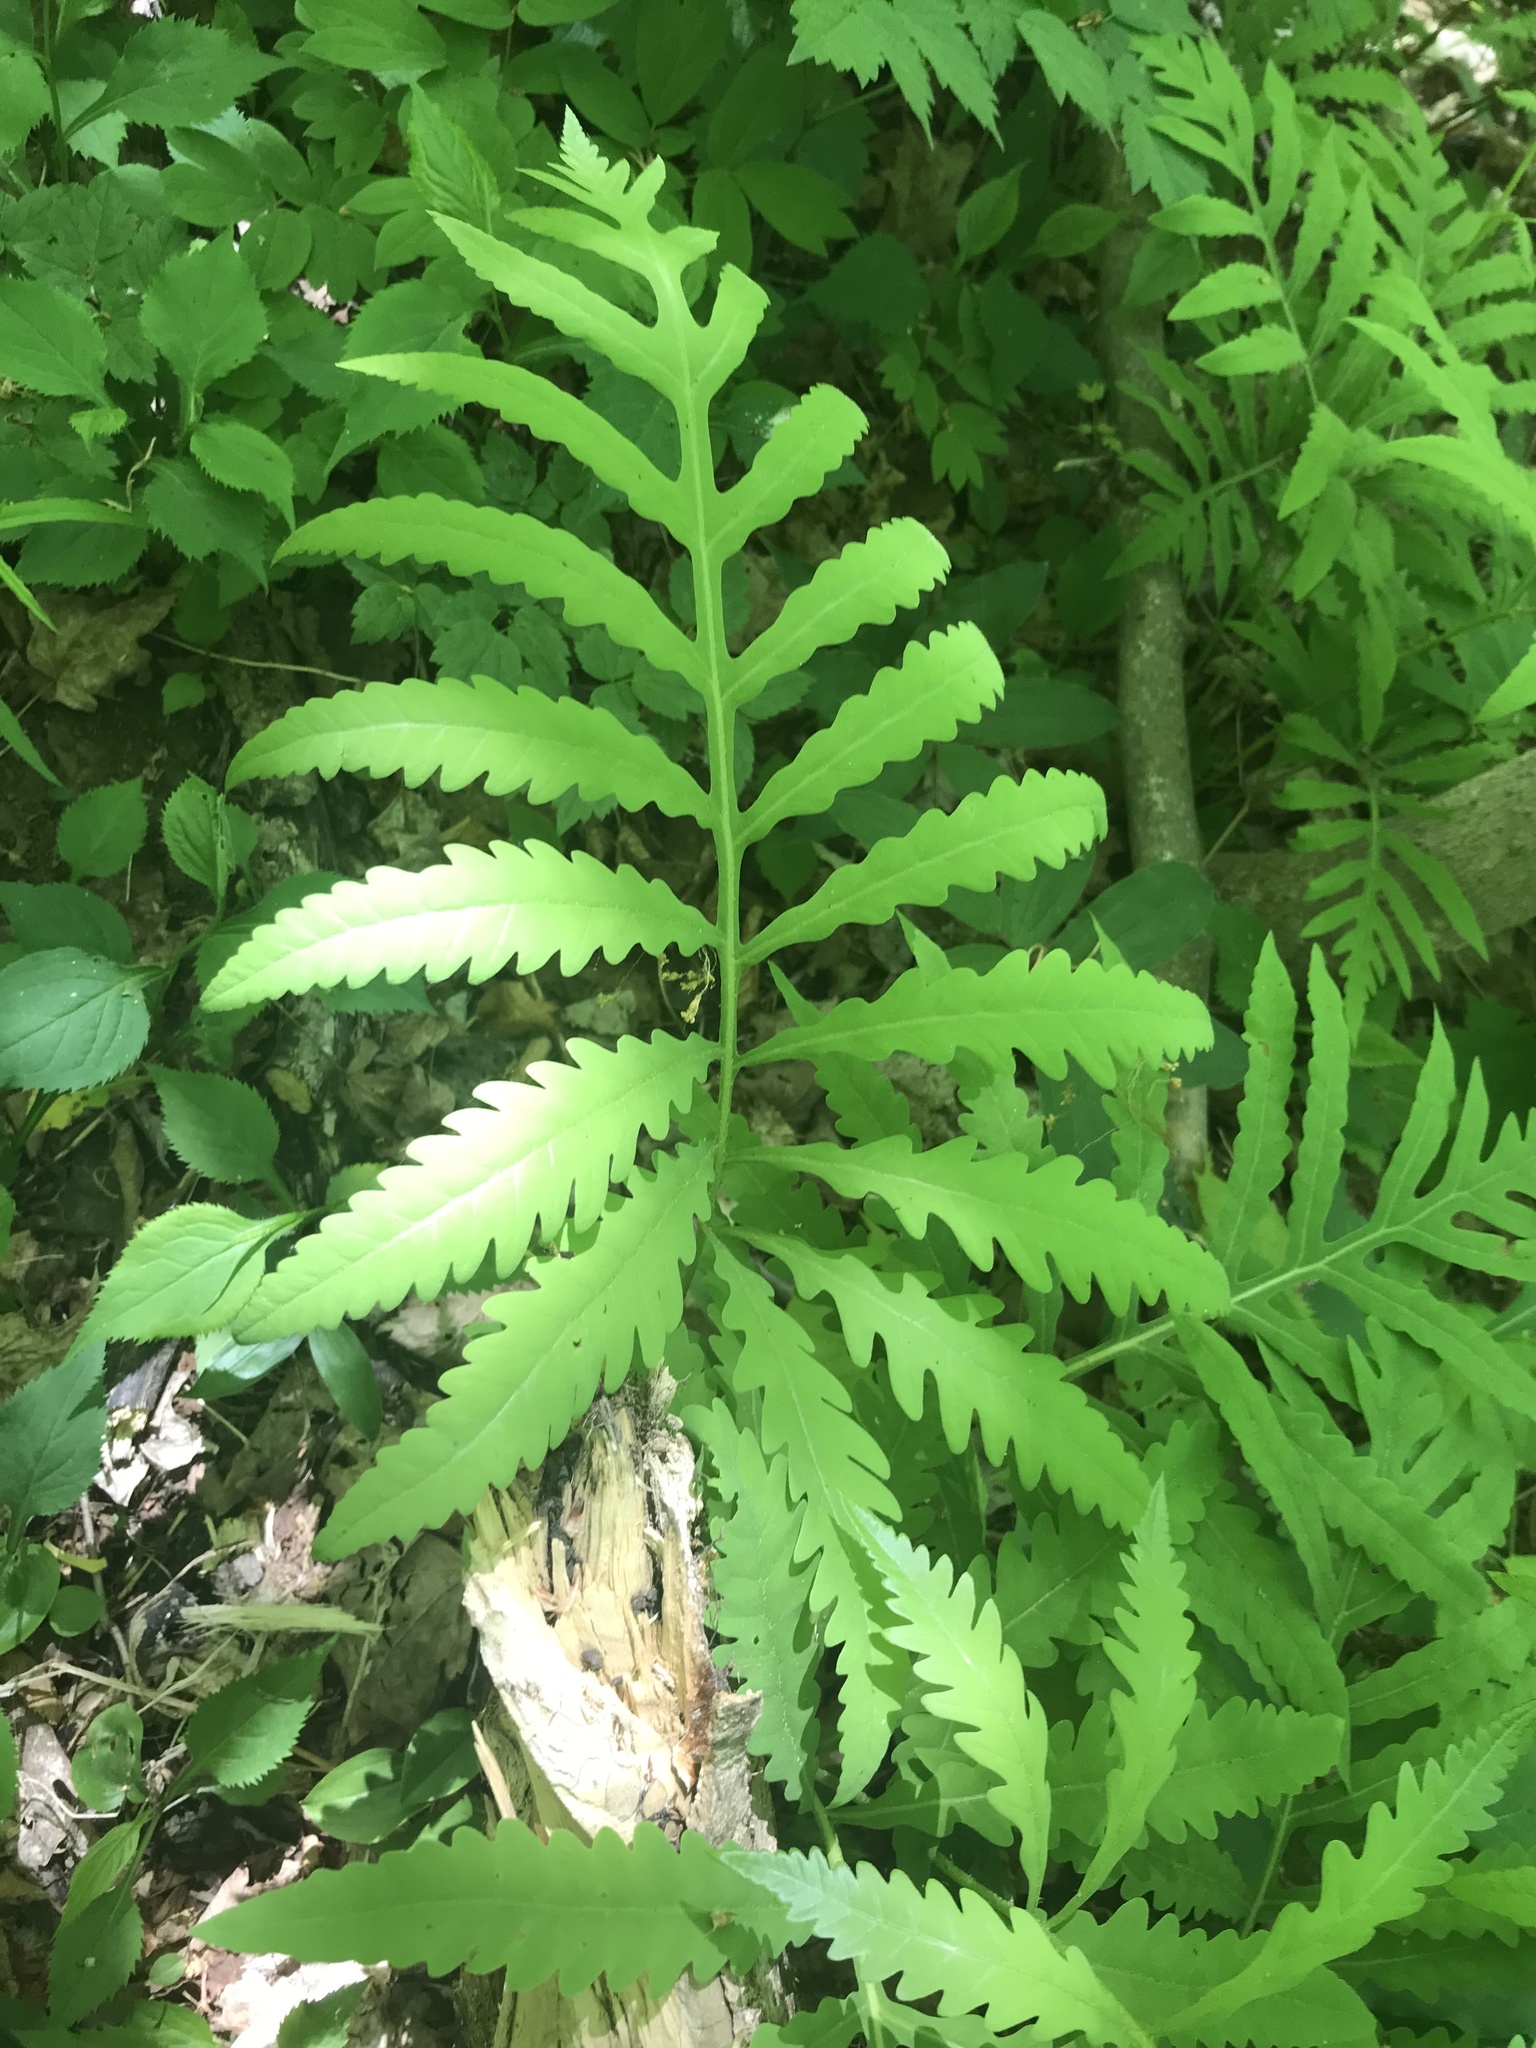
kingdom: Plantae
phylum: Tracheophyta
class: Polypodiopsida
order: Polypodiales
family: Onocleaceae
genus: Onoclea
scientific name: Onoclea sensibilis
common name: Sensitive fern
